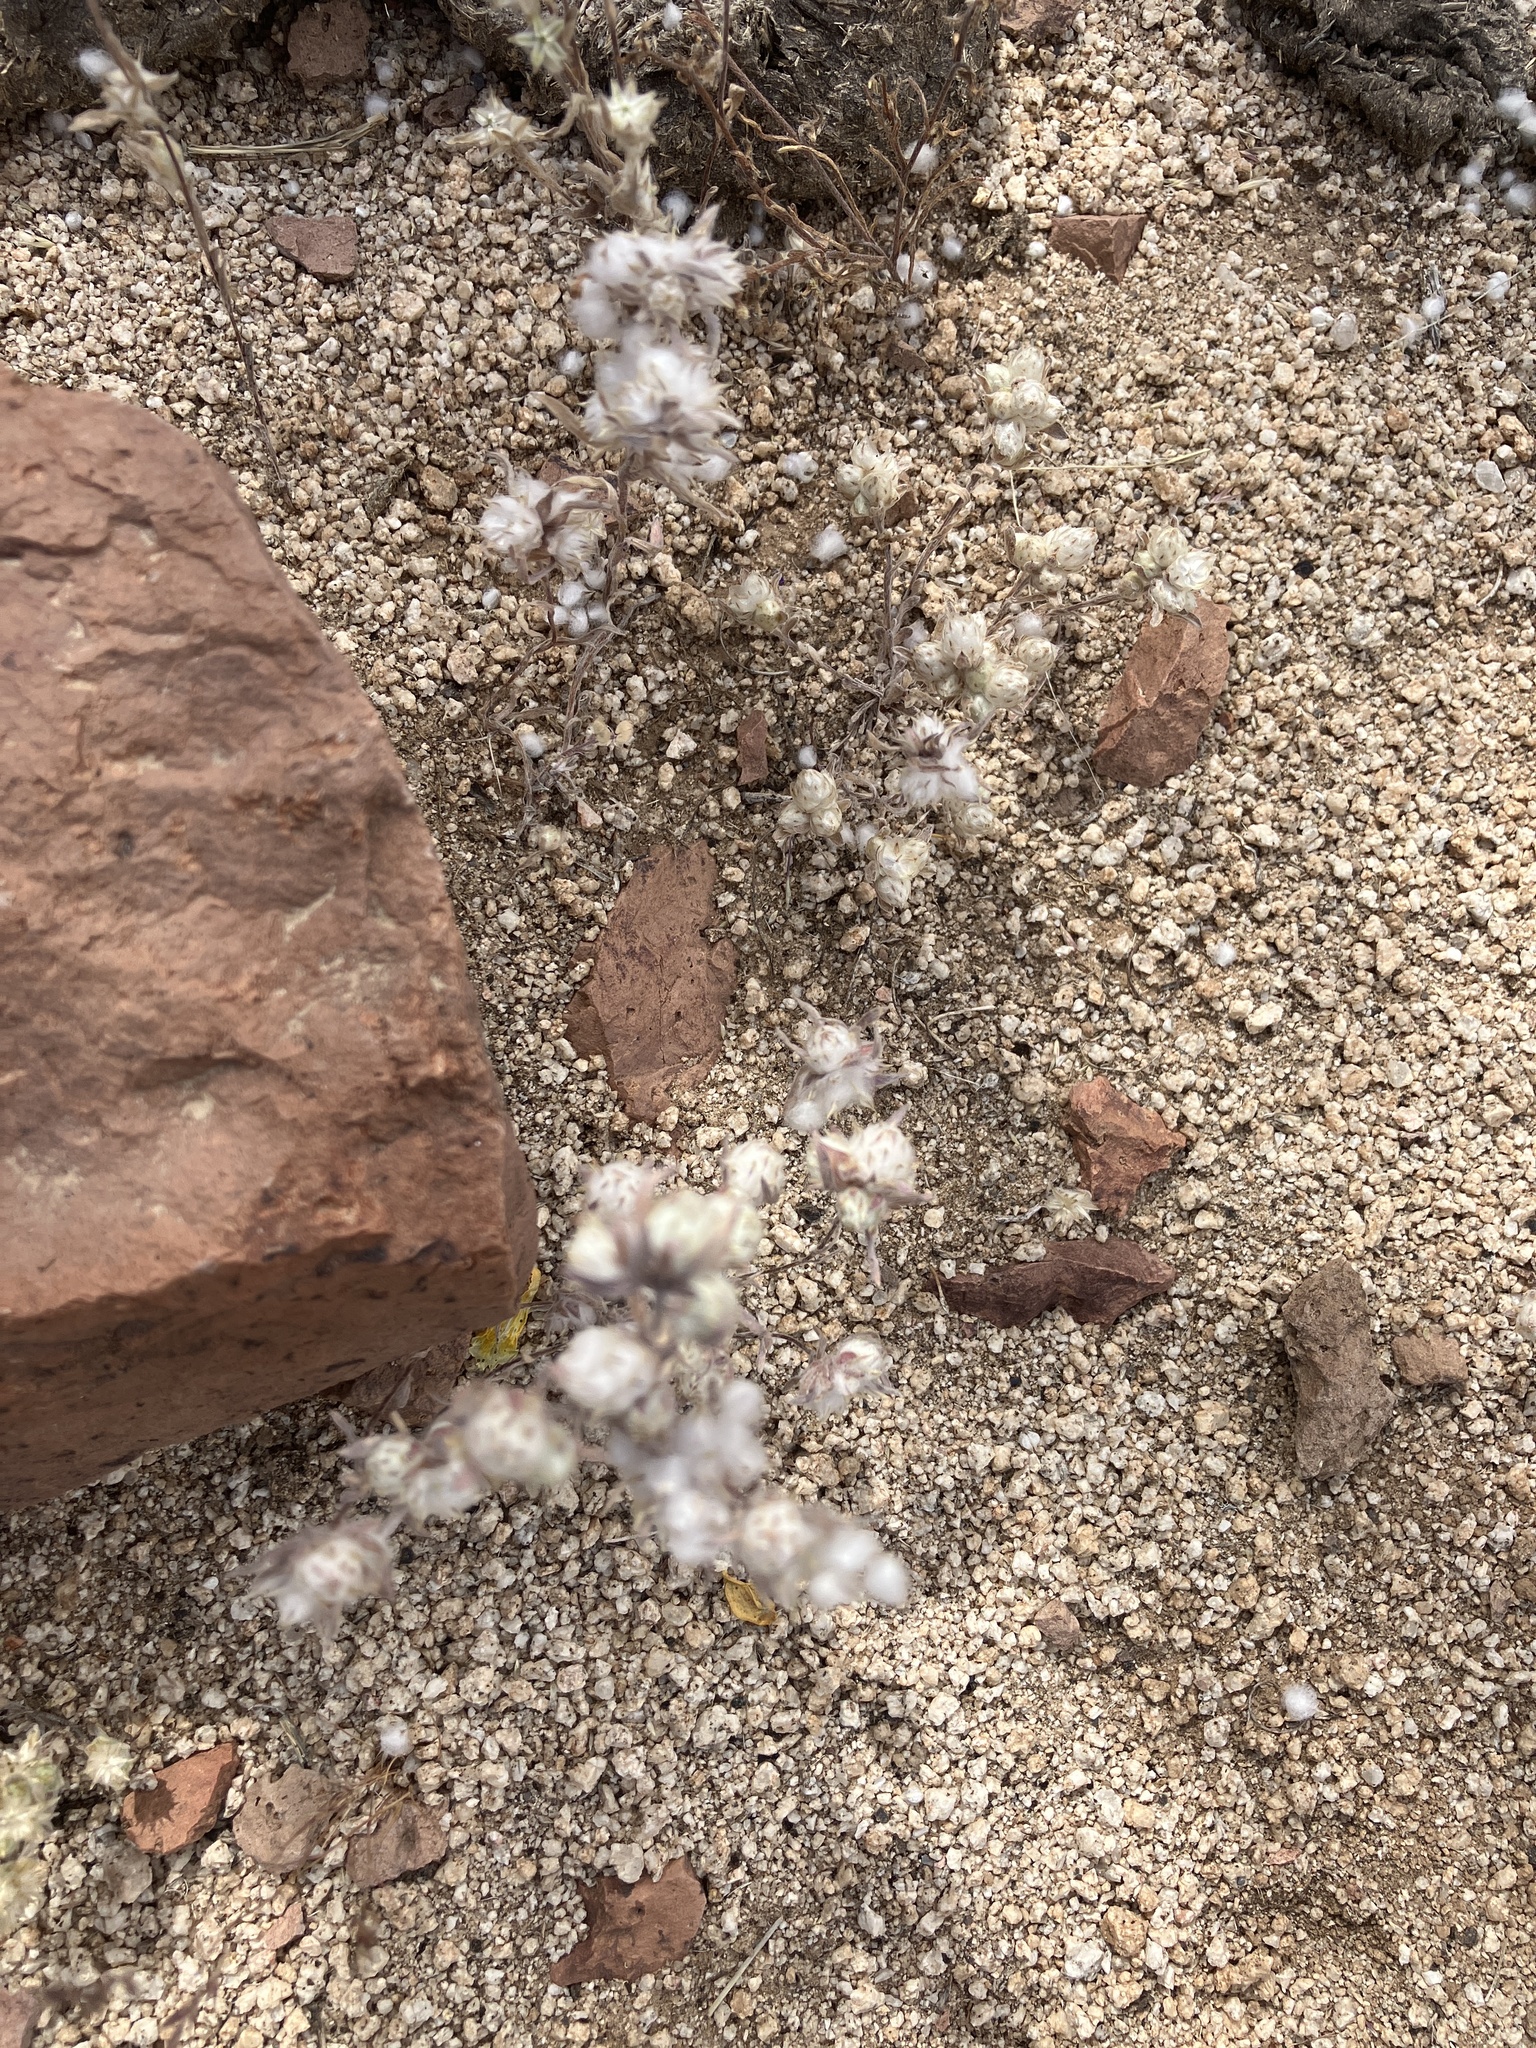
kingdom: Plantae
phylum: Tracheophyta
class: Magnoliopsida
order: Asterales
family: Asteraceae
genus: Stylocline
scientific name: Stylocline micropoides
